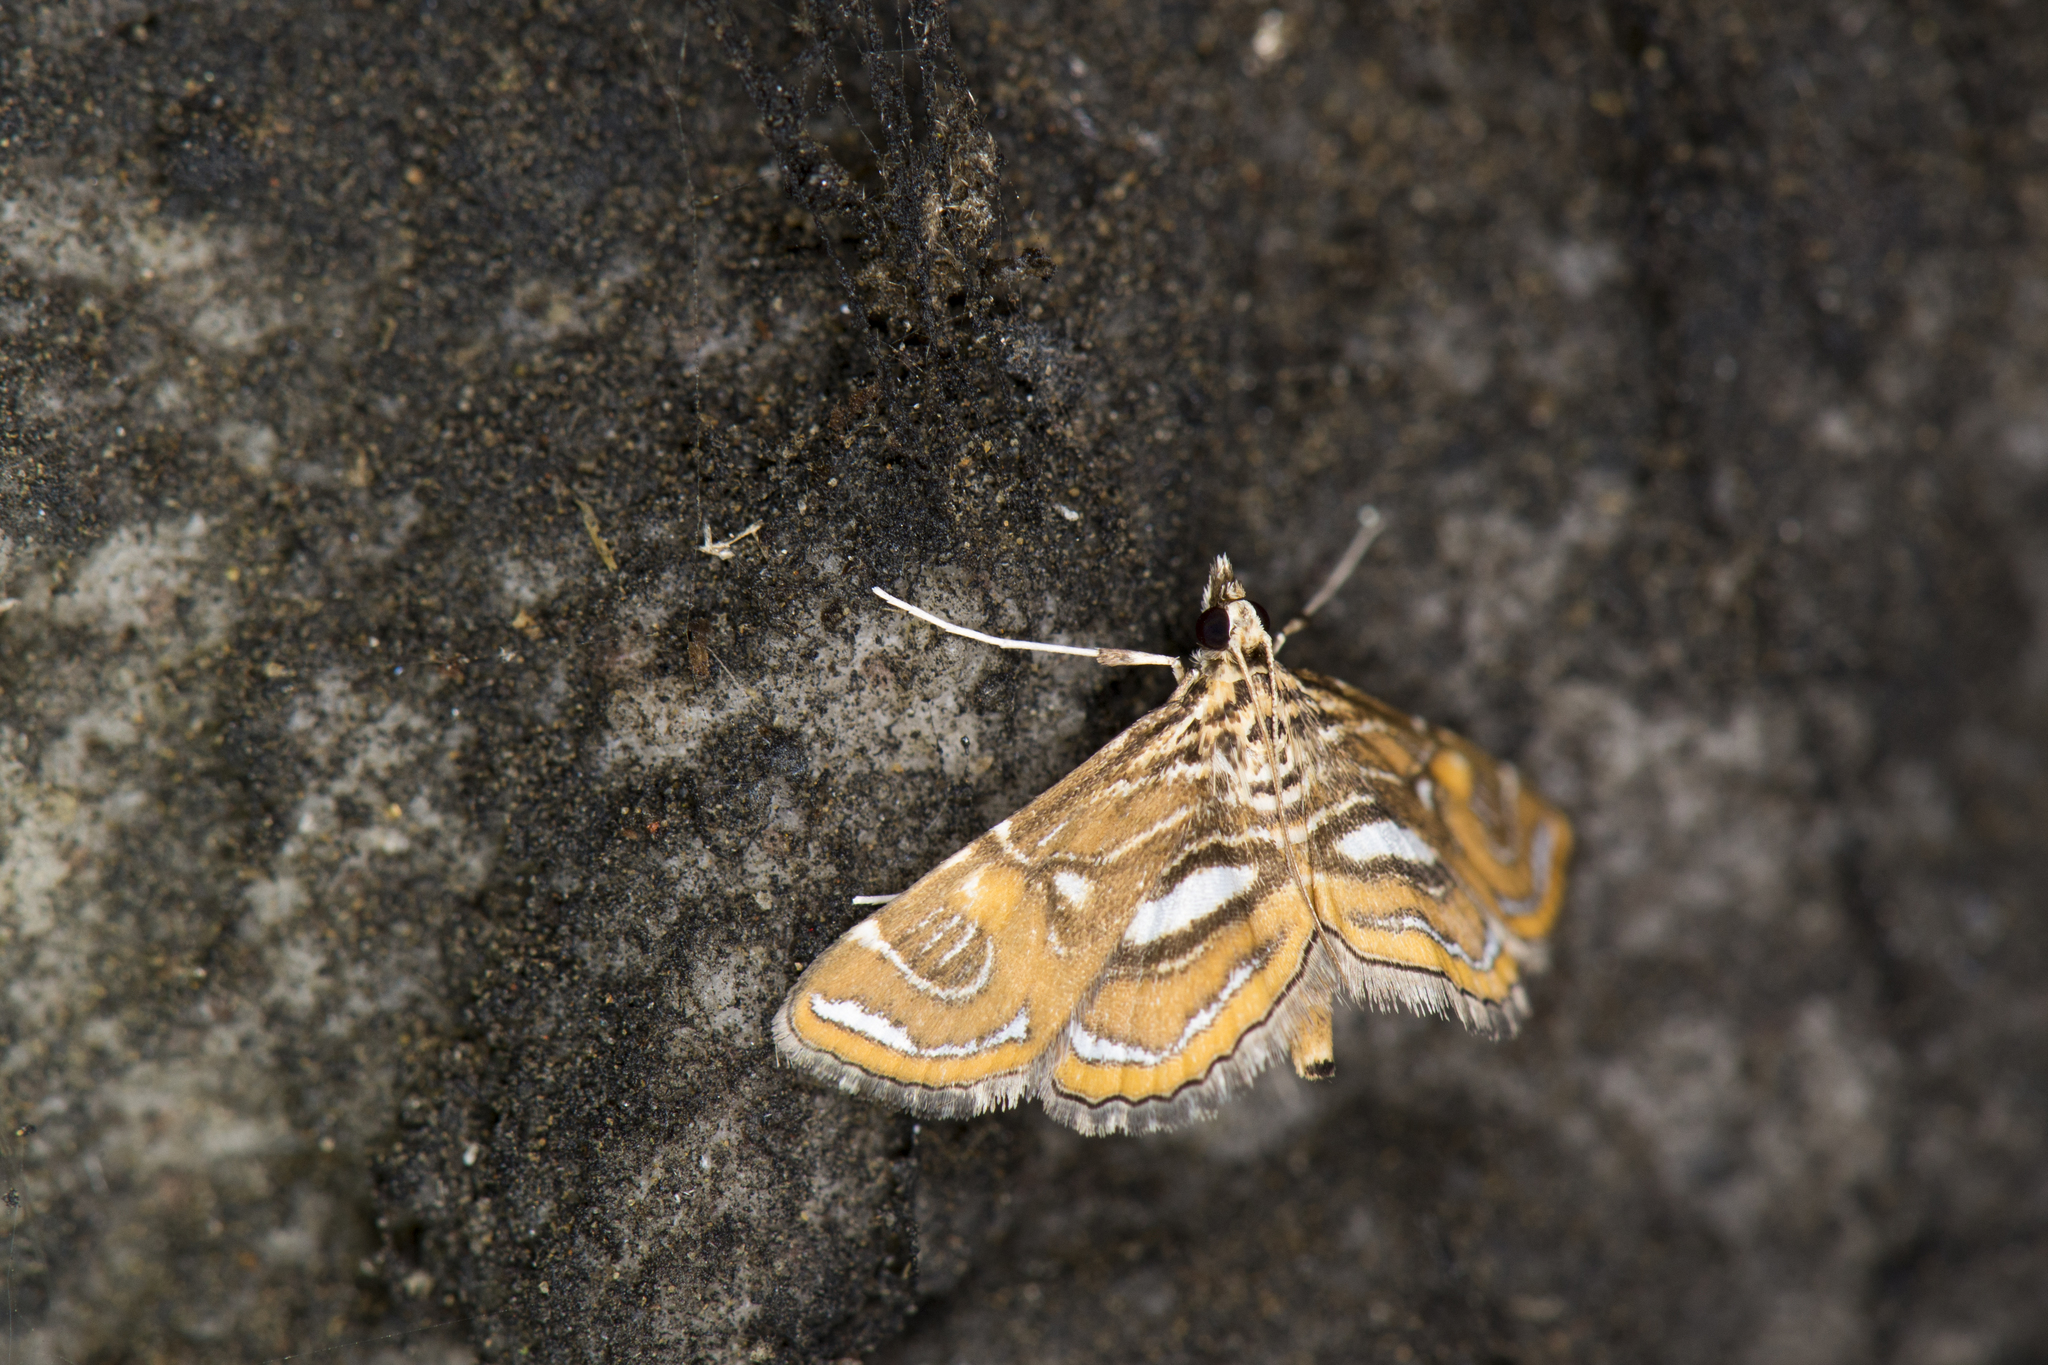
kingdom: Animalia
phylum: Arthropoda
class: Insecta
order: Lepidoptera
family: Crambidae
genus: Paracymoriza
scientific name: Paracymoriza cataclystalis
